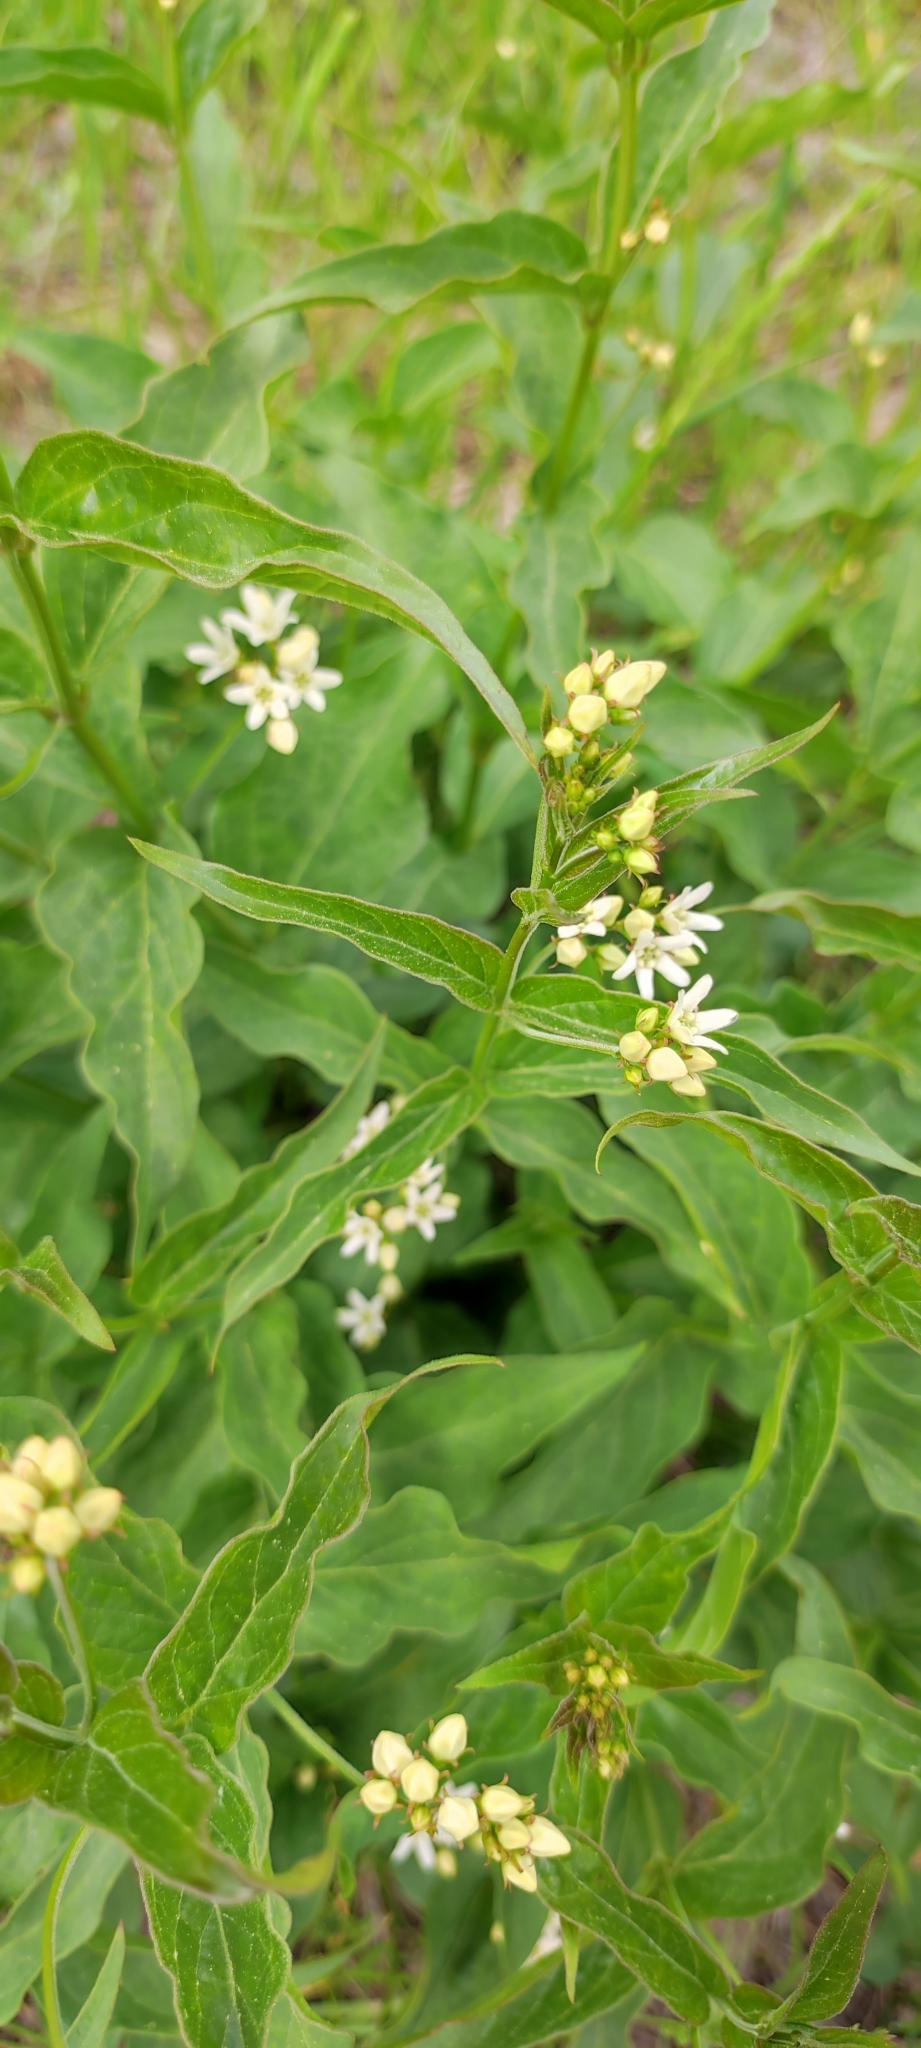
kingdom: Plantae
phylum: Tracheophyta
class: Magnoliopsida
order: Gentianales
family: Apocynaceae
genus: Vincetoxicum
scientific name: Vincetoxicum hirundinaria
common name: White swallowwort
